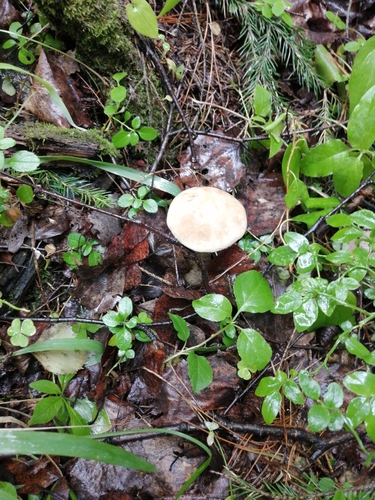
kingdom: Fungi
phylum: Basidiomycota
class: Agaricomycetes
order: Boletales
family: Boletaceae
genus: Leccinum
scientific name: Leccinum scabrum
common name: Blushing bolete
